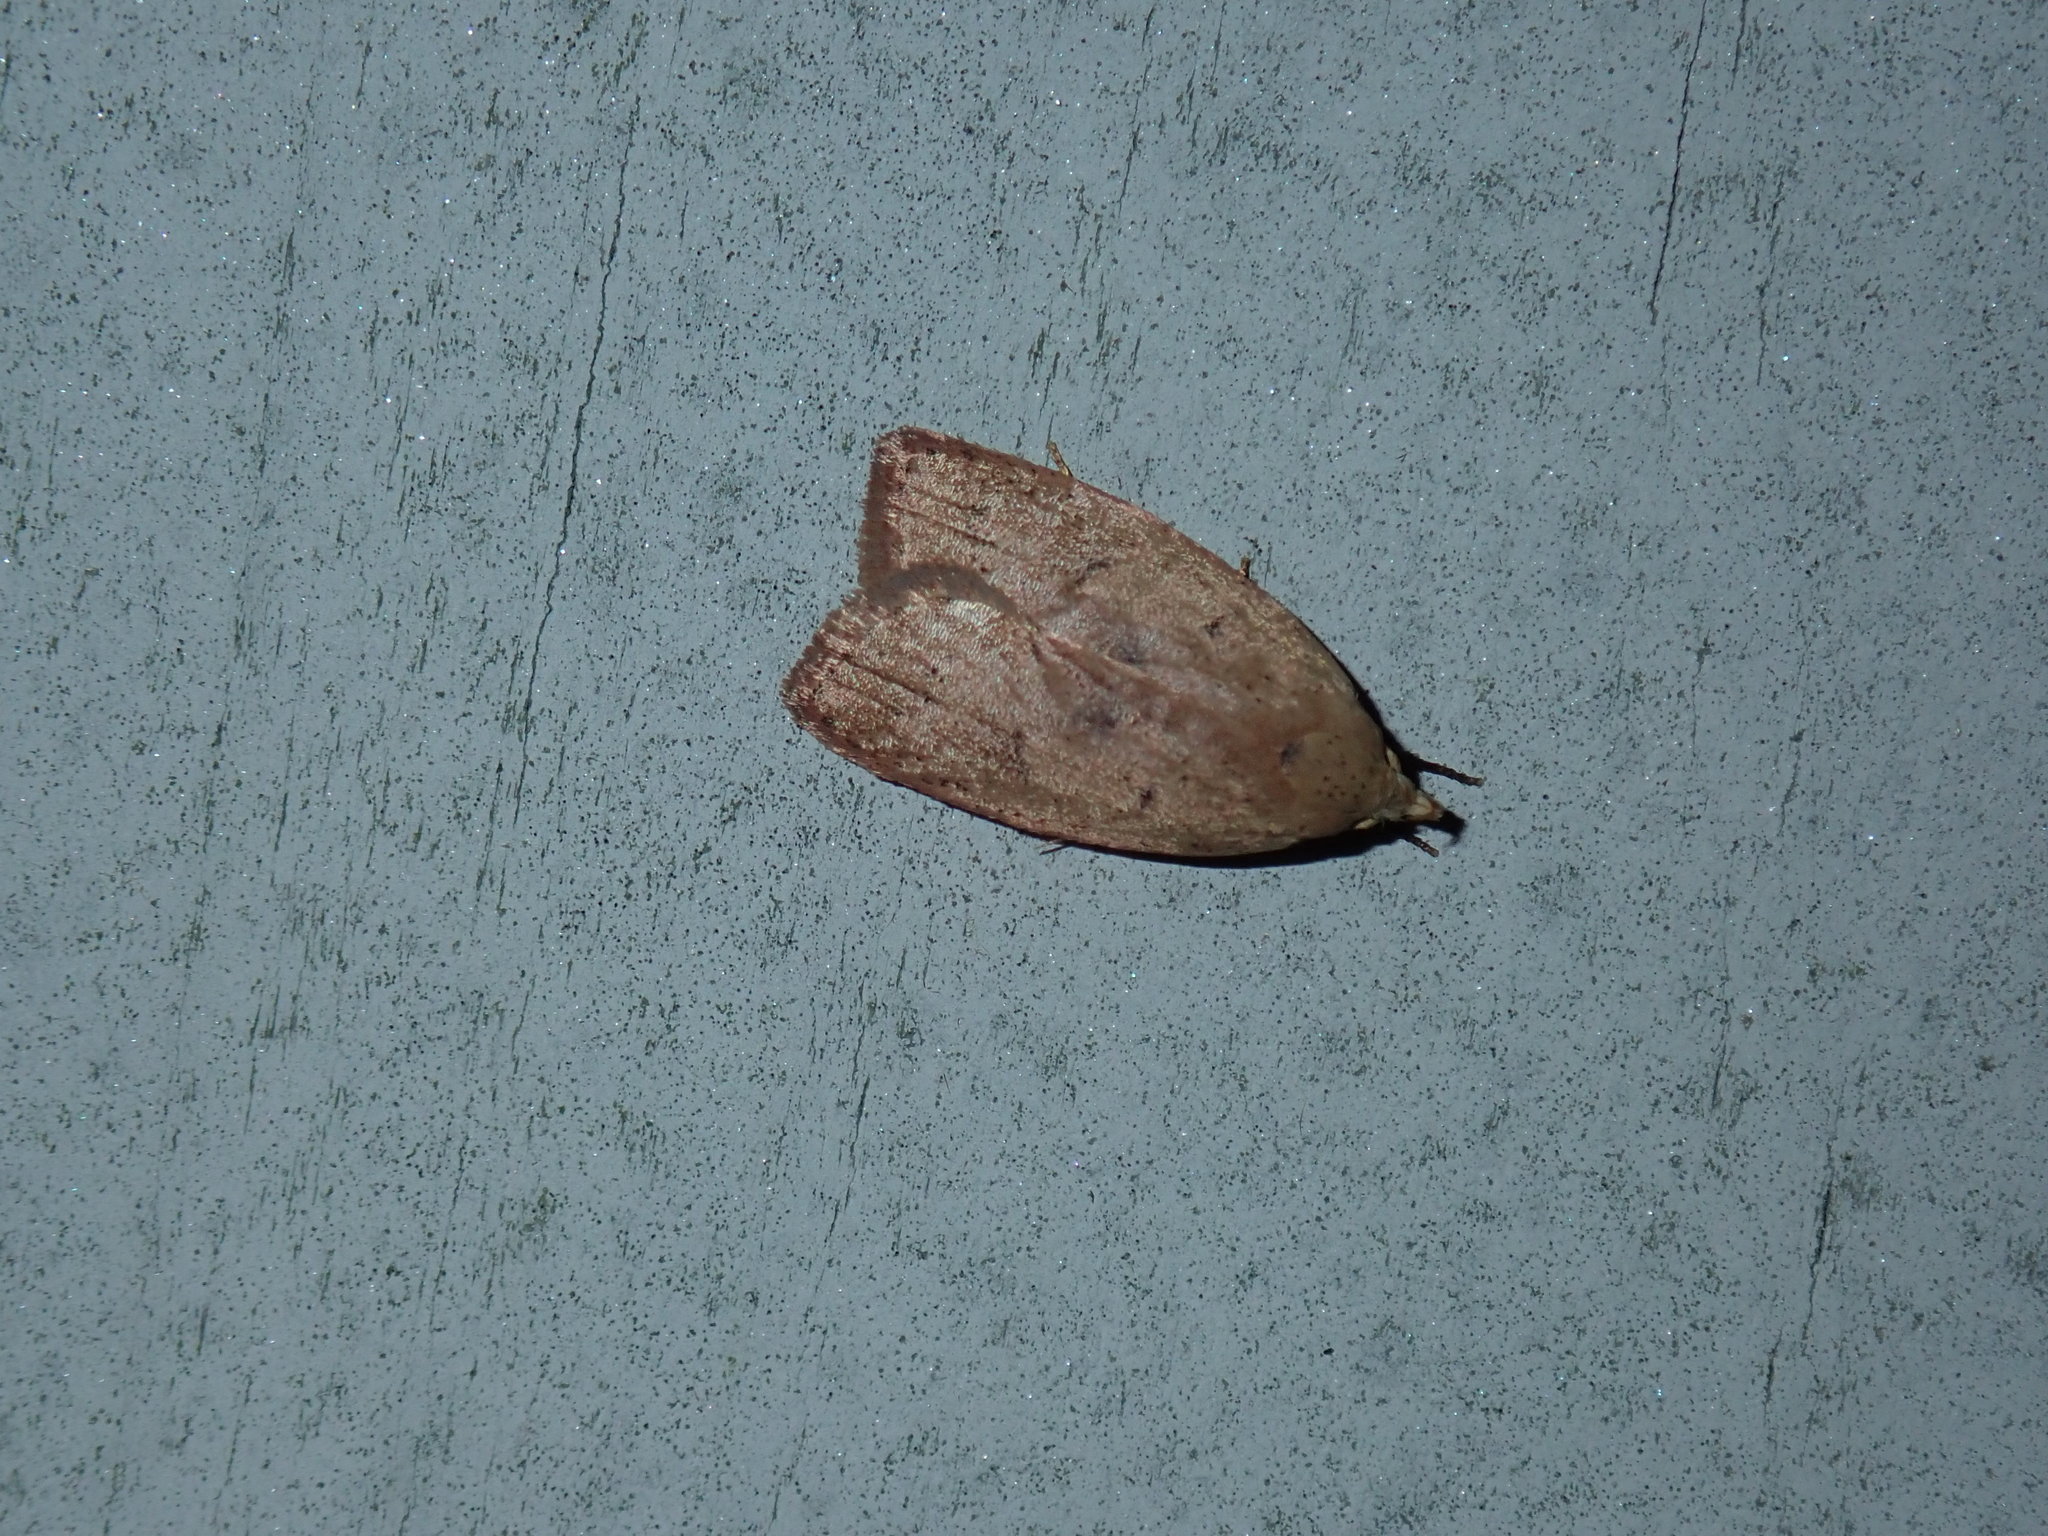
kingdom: Animalia
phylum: Arthropoda
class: Insecta
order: Lepidoptera
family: Peleopodidae
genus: Machimia
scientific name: Machimia tentoriferella
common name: Gold-striped leaftier moth
